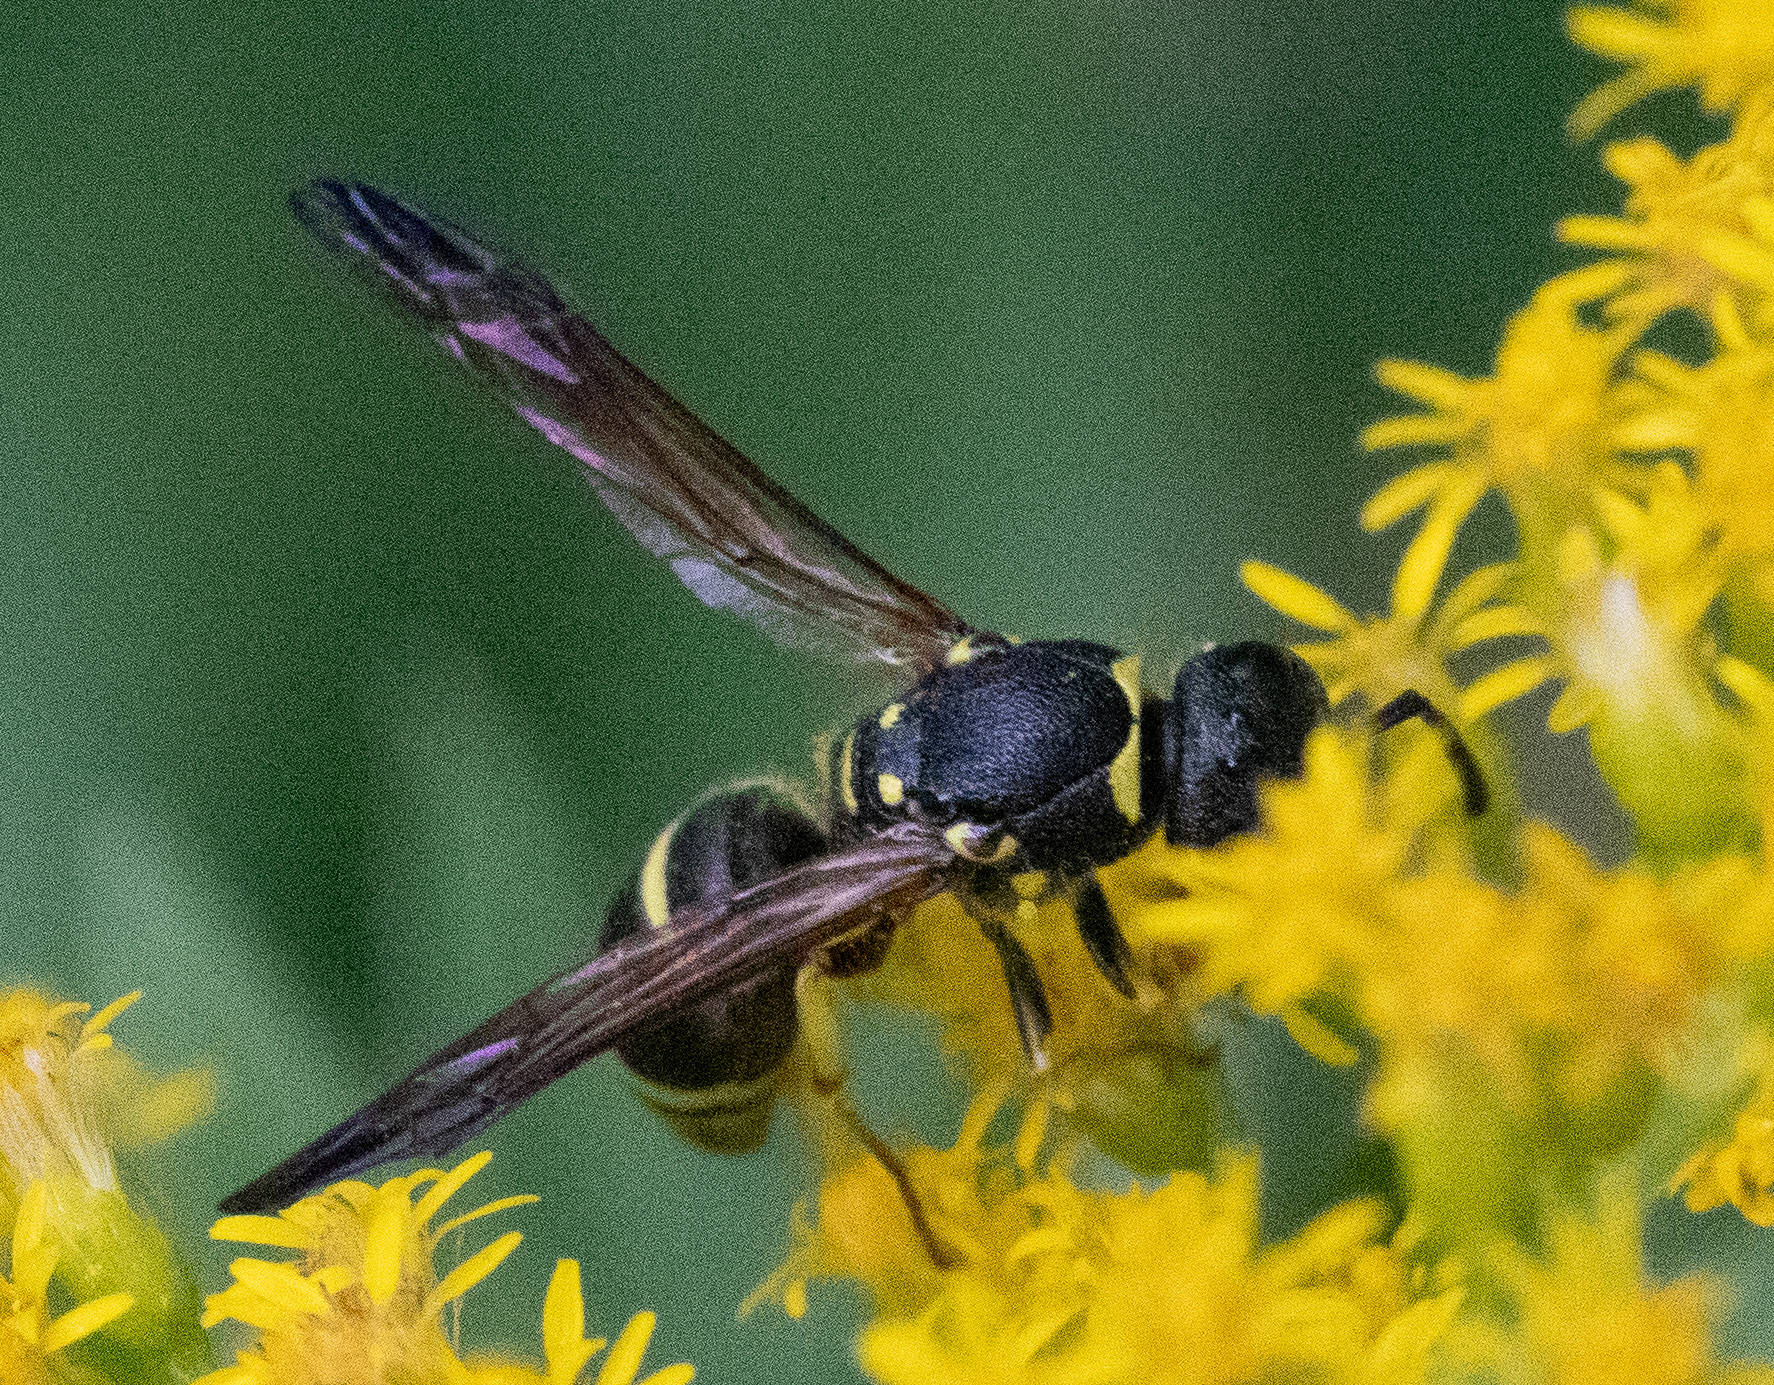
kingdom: Animalia
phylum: Arthropoda
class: Insecta
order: Hymenoptera
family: Vespidae
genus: Ancistrocerus
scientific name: Ancistrocerus adiabatus
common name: Bramble mason wasp
